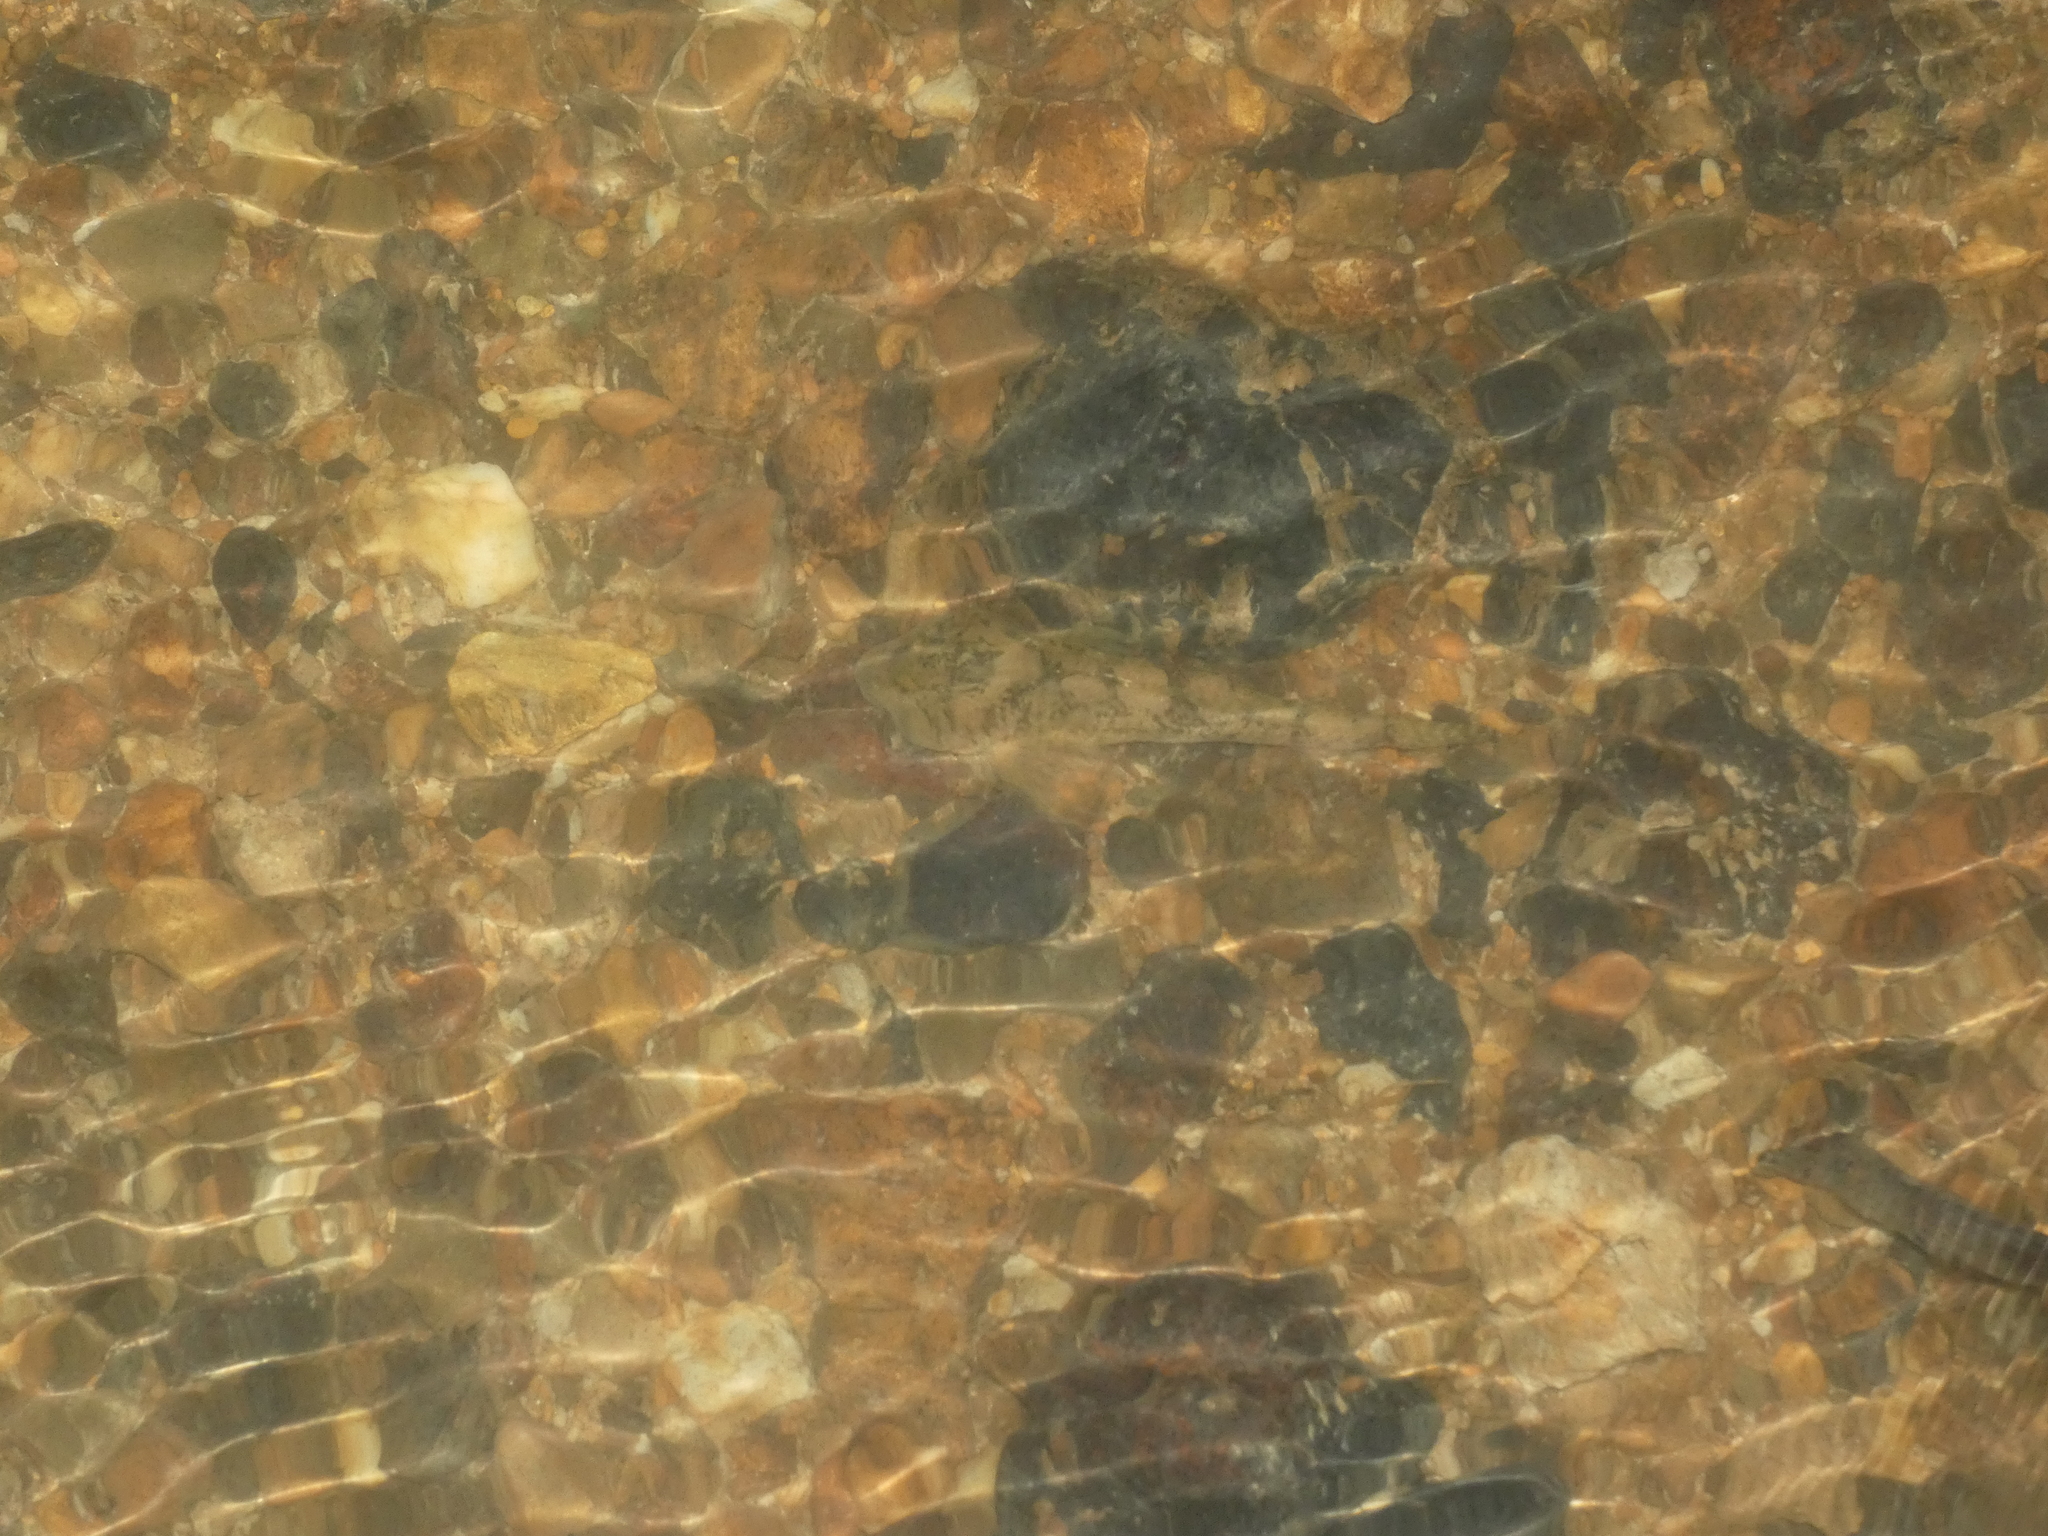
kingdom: Animalia
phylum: Chordata
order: Scorpaeniformes
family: Cottidae
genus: Cottus
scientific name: Cottus perifretum
